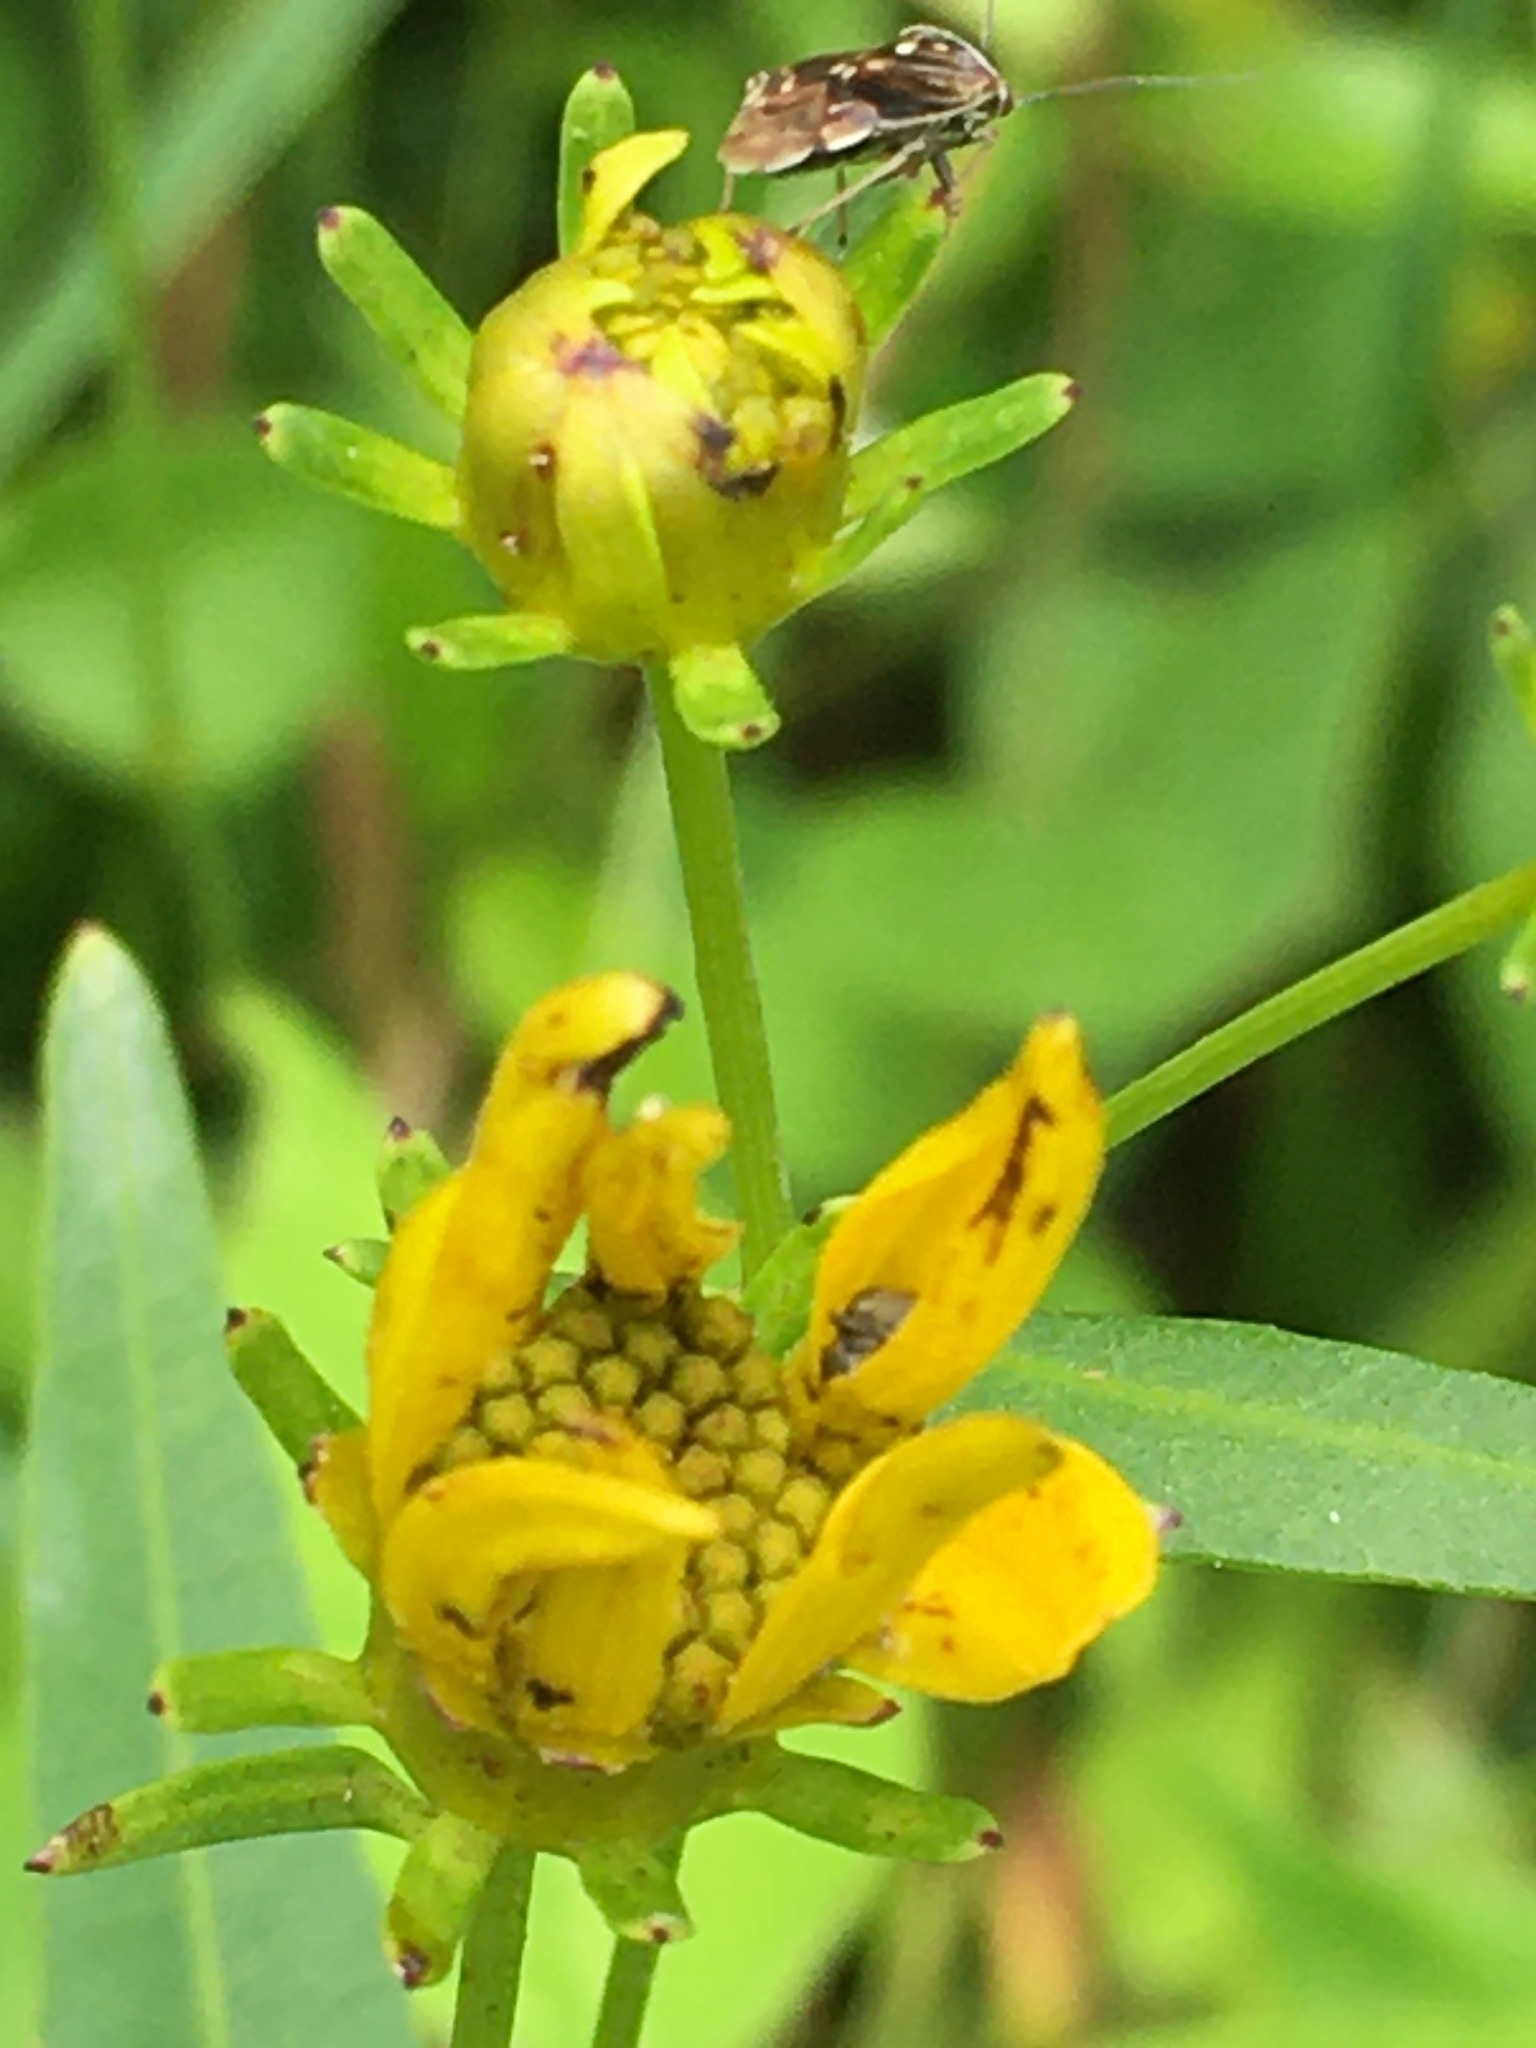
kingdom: Plantae
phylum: Tracheophyta
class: Magnoliopsida
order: Asterales
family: Asteraceae
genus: Coreopsis
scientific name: Coreopsis major
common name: Forest tickseed
